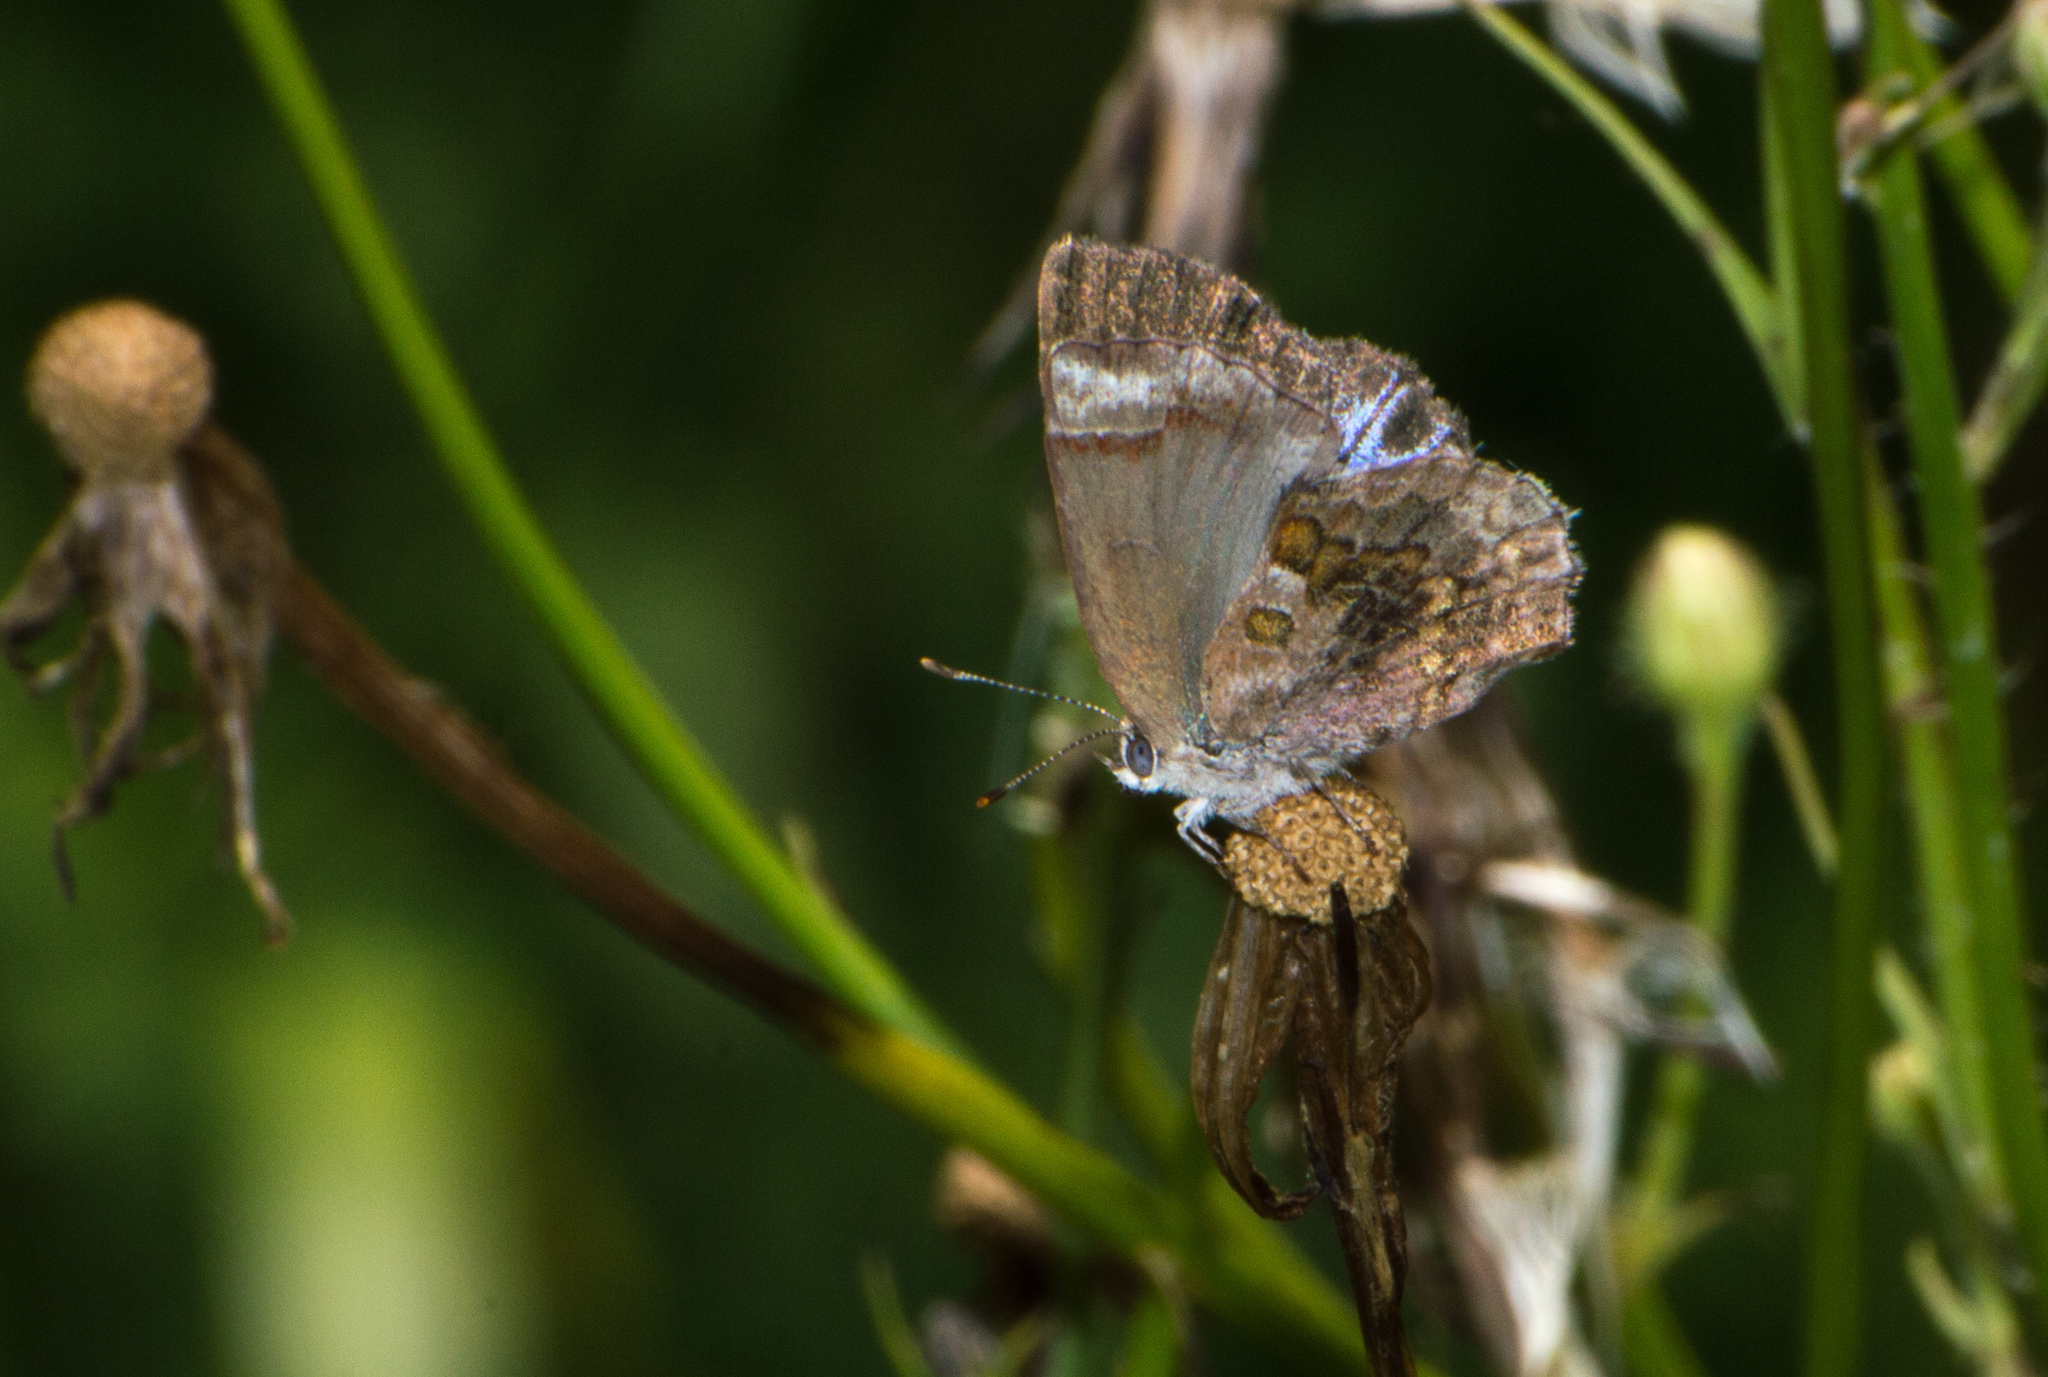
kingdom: Animalia
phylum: Arthropoda
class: Insecta
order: Lepidoptera
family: Lycaenidae
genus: Strymon
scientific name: Strymon bazochii
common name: Lantana scrub-hairstreak
